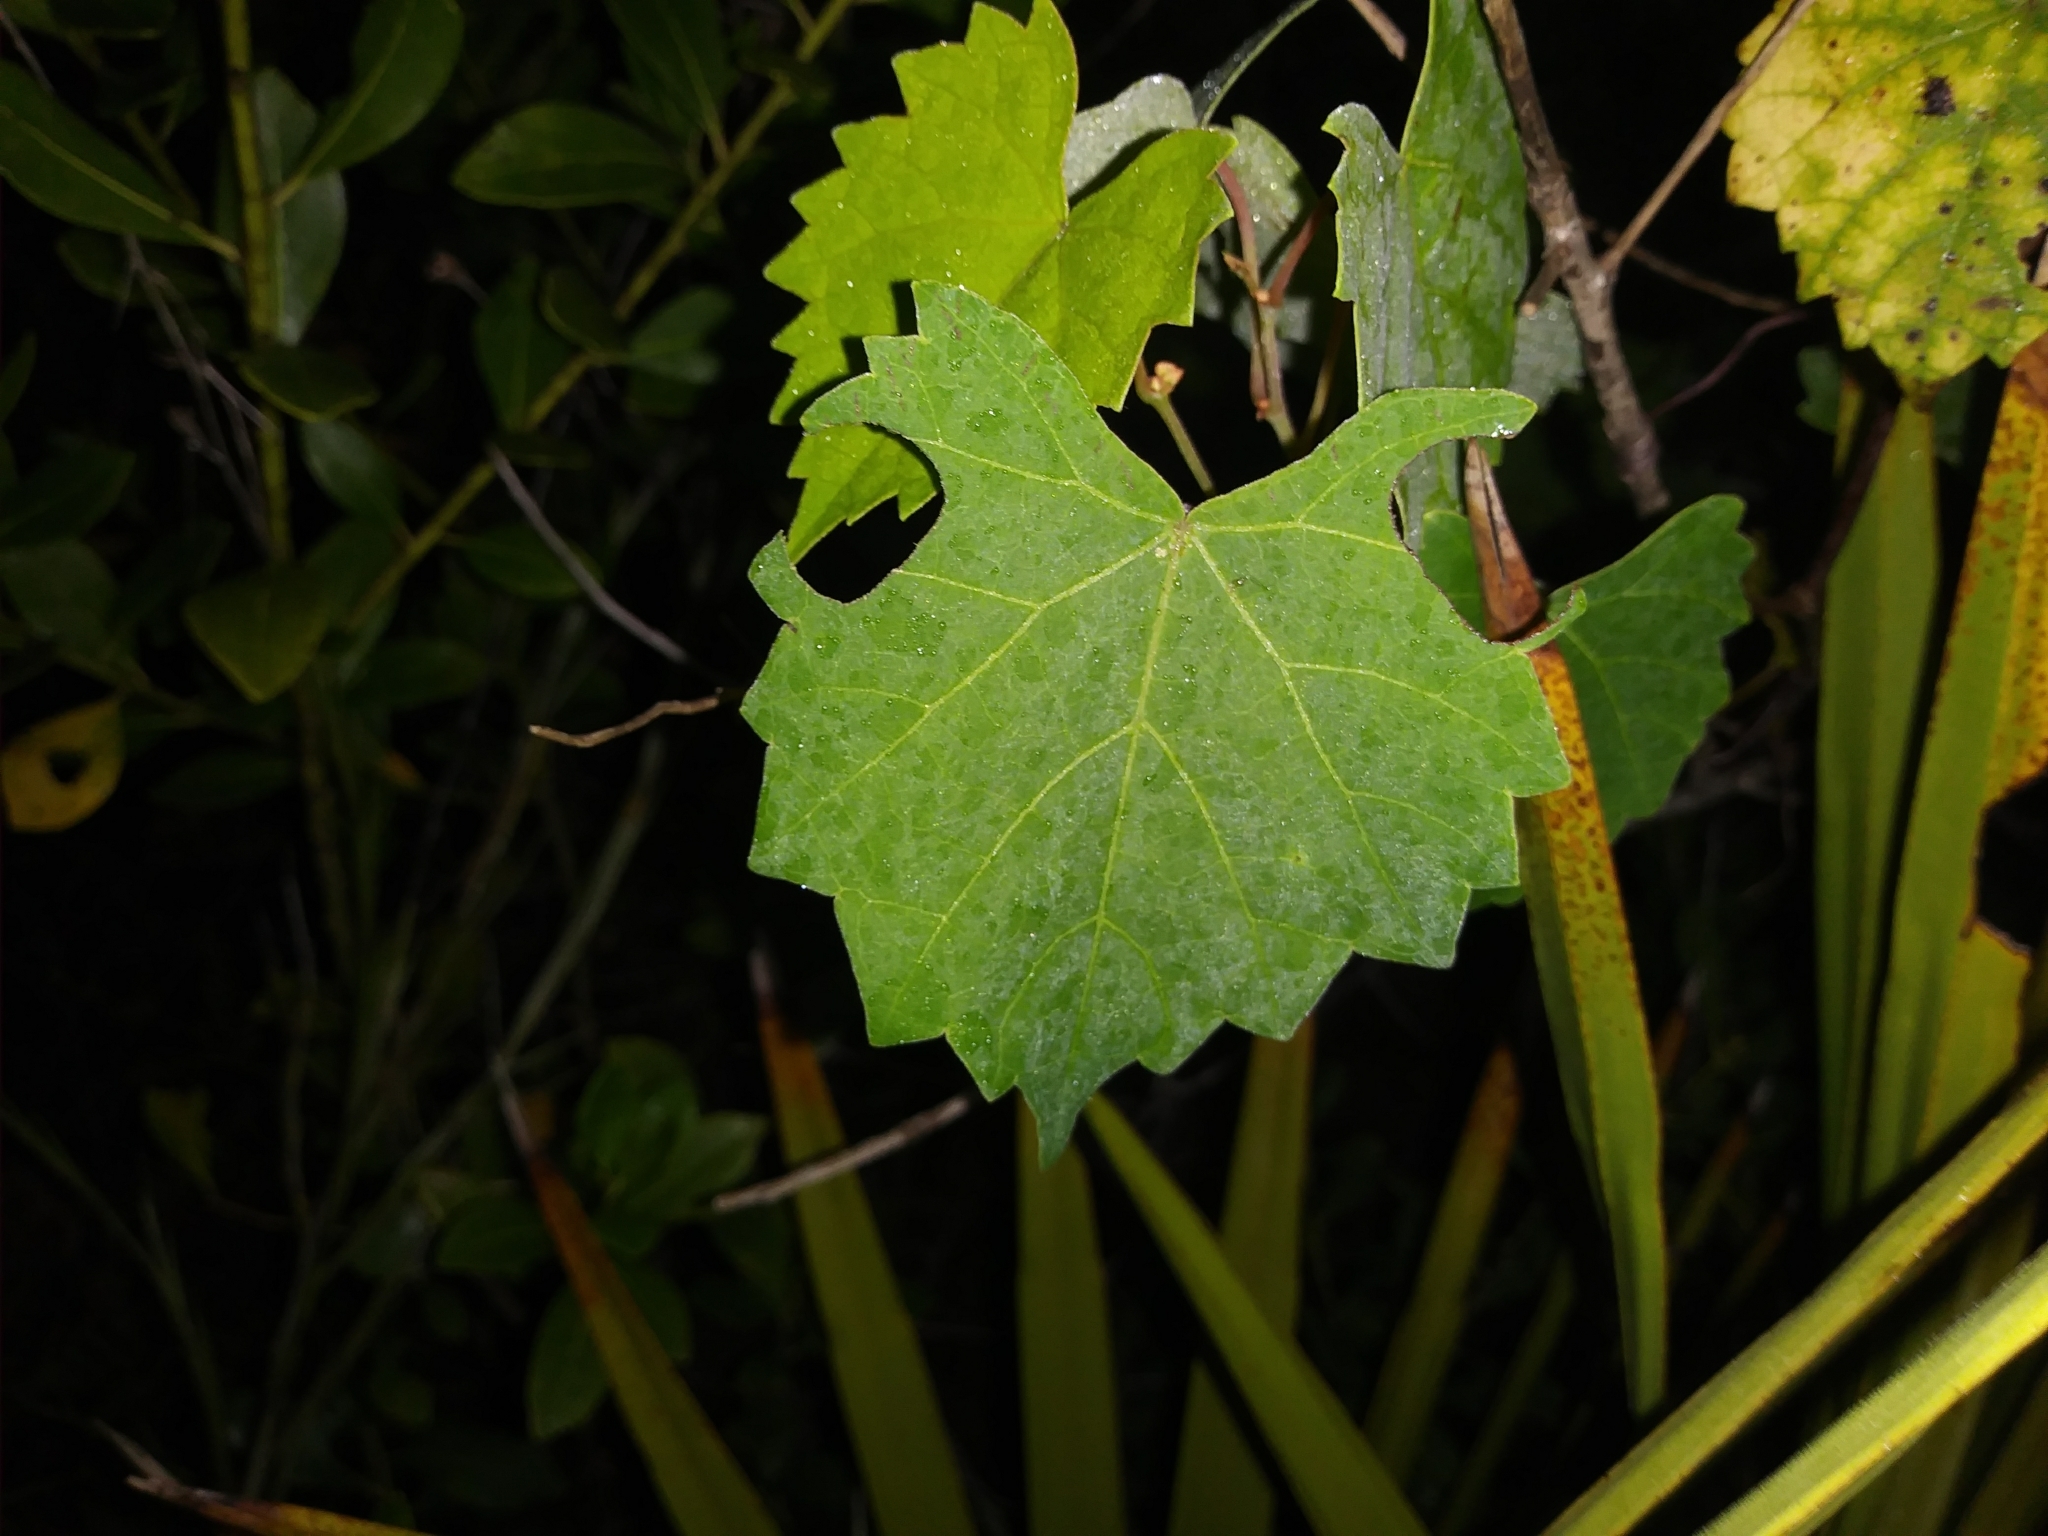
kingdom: Plantae
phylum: Tracheophyta
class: Magnoliopsida
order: Vitales
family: Vitaceae
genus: Vitis
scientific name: Vitis rotundifolia
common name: Muscadine grape
